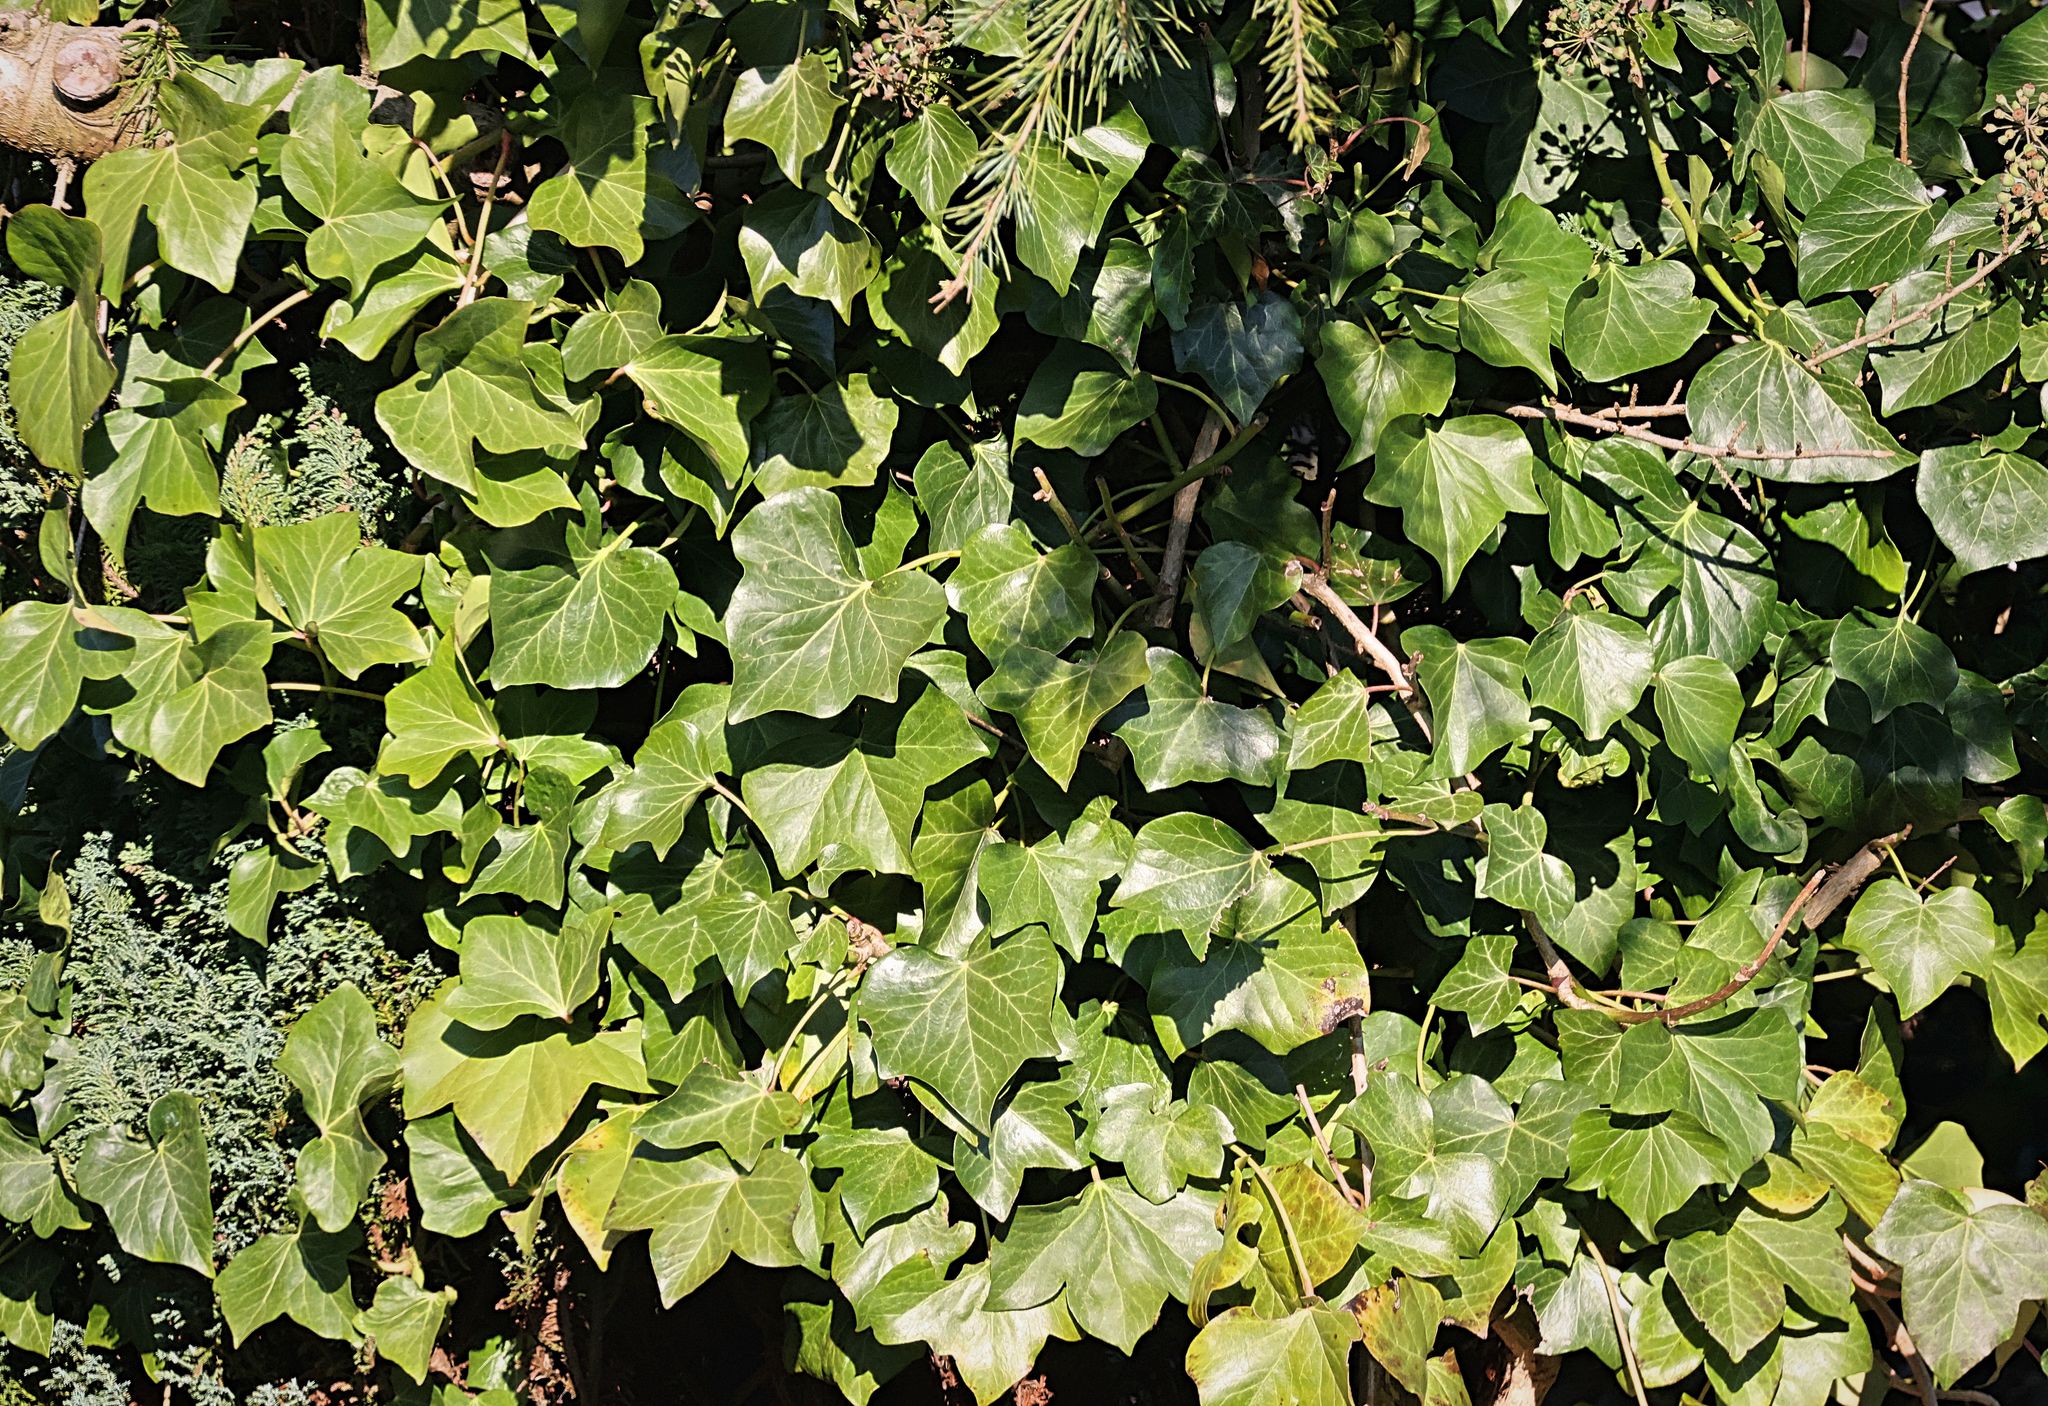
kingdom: Plantae
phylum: Tracheophyta
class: Magnoliopsida
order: Apiales
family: Araliaceae
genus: Hedera
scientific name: Hedera helix
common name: Ivy
